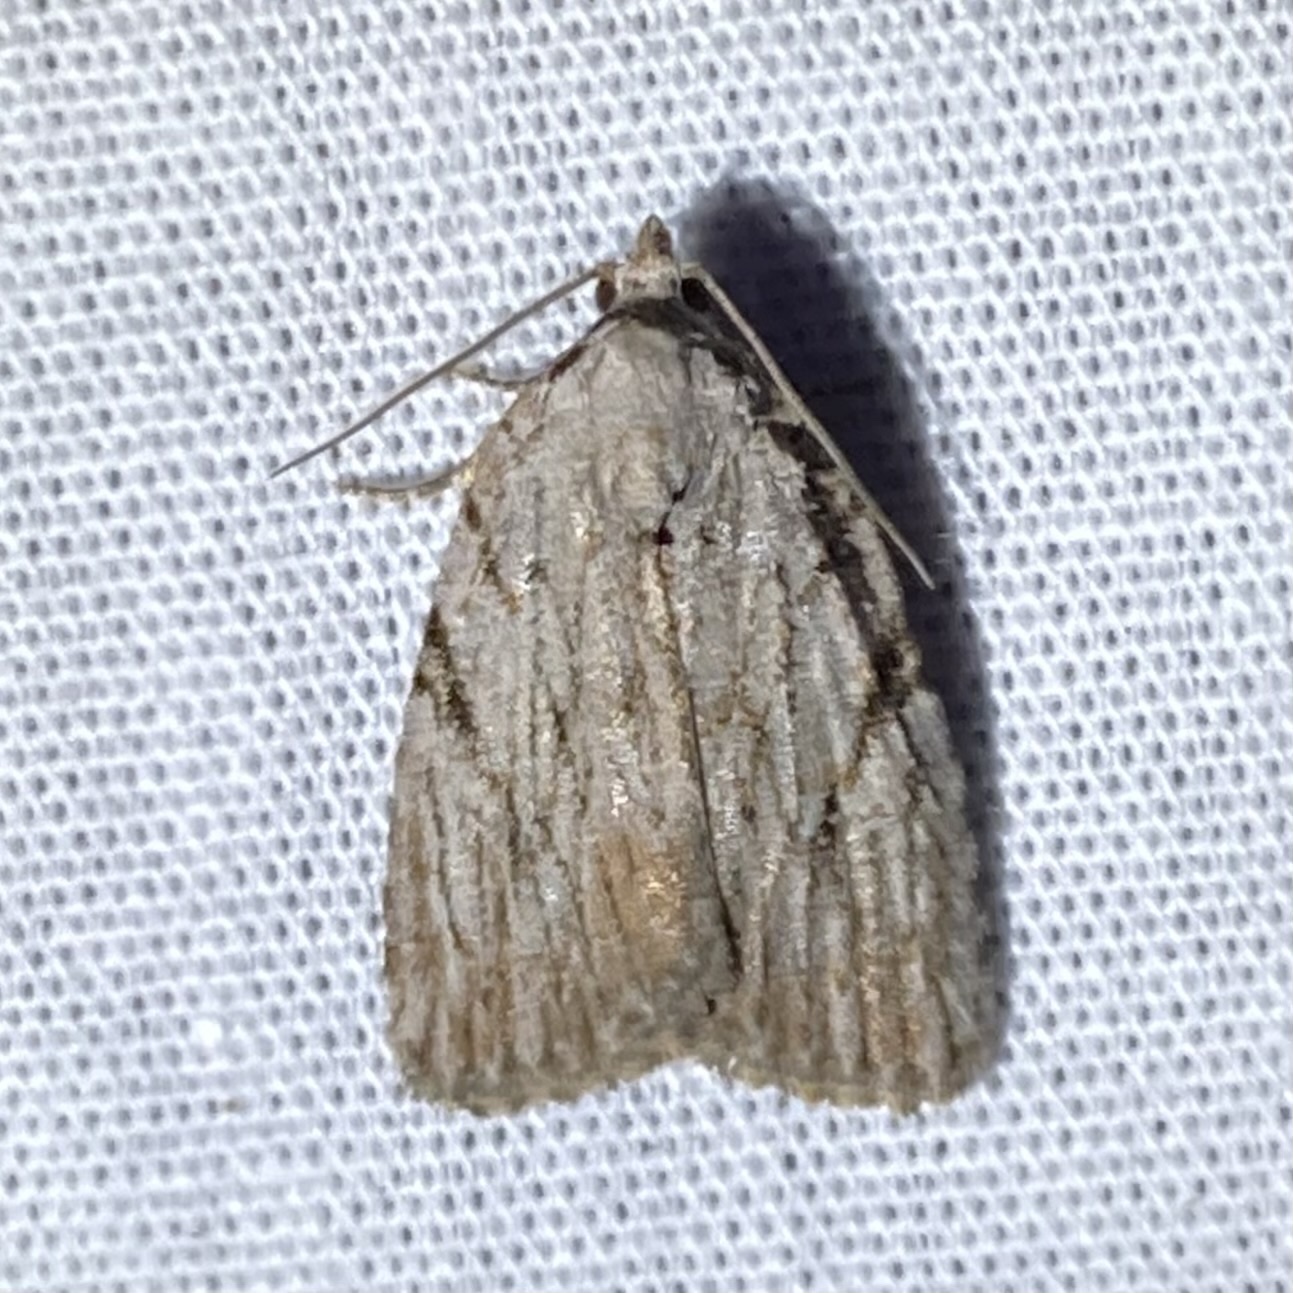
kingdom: Animalia
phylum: Arthropoda
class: Insecta
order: Lepidoptera
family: Noctuidae
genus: Balsa
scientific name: Balsa tristrigella
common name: Three-lined balsa moth
